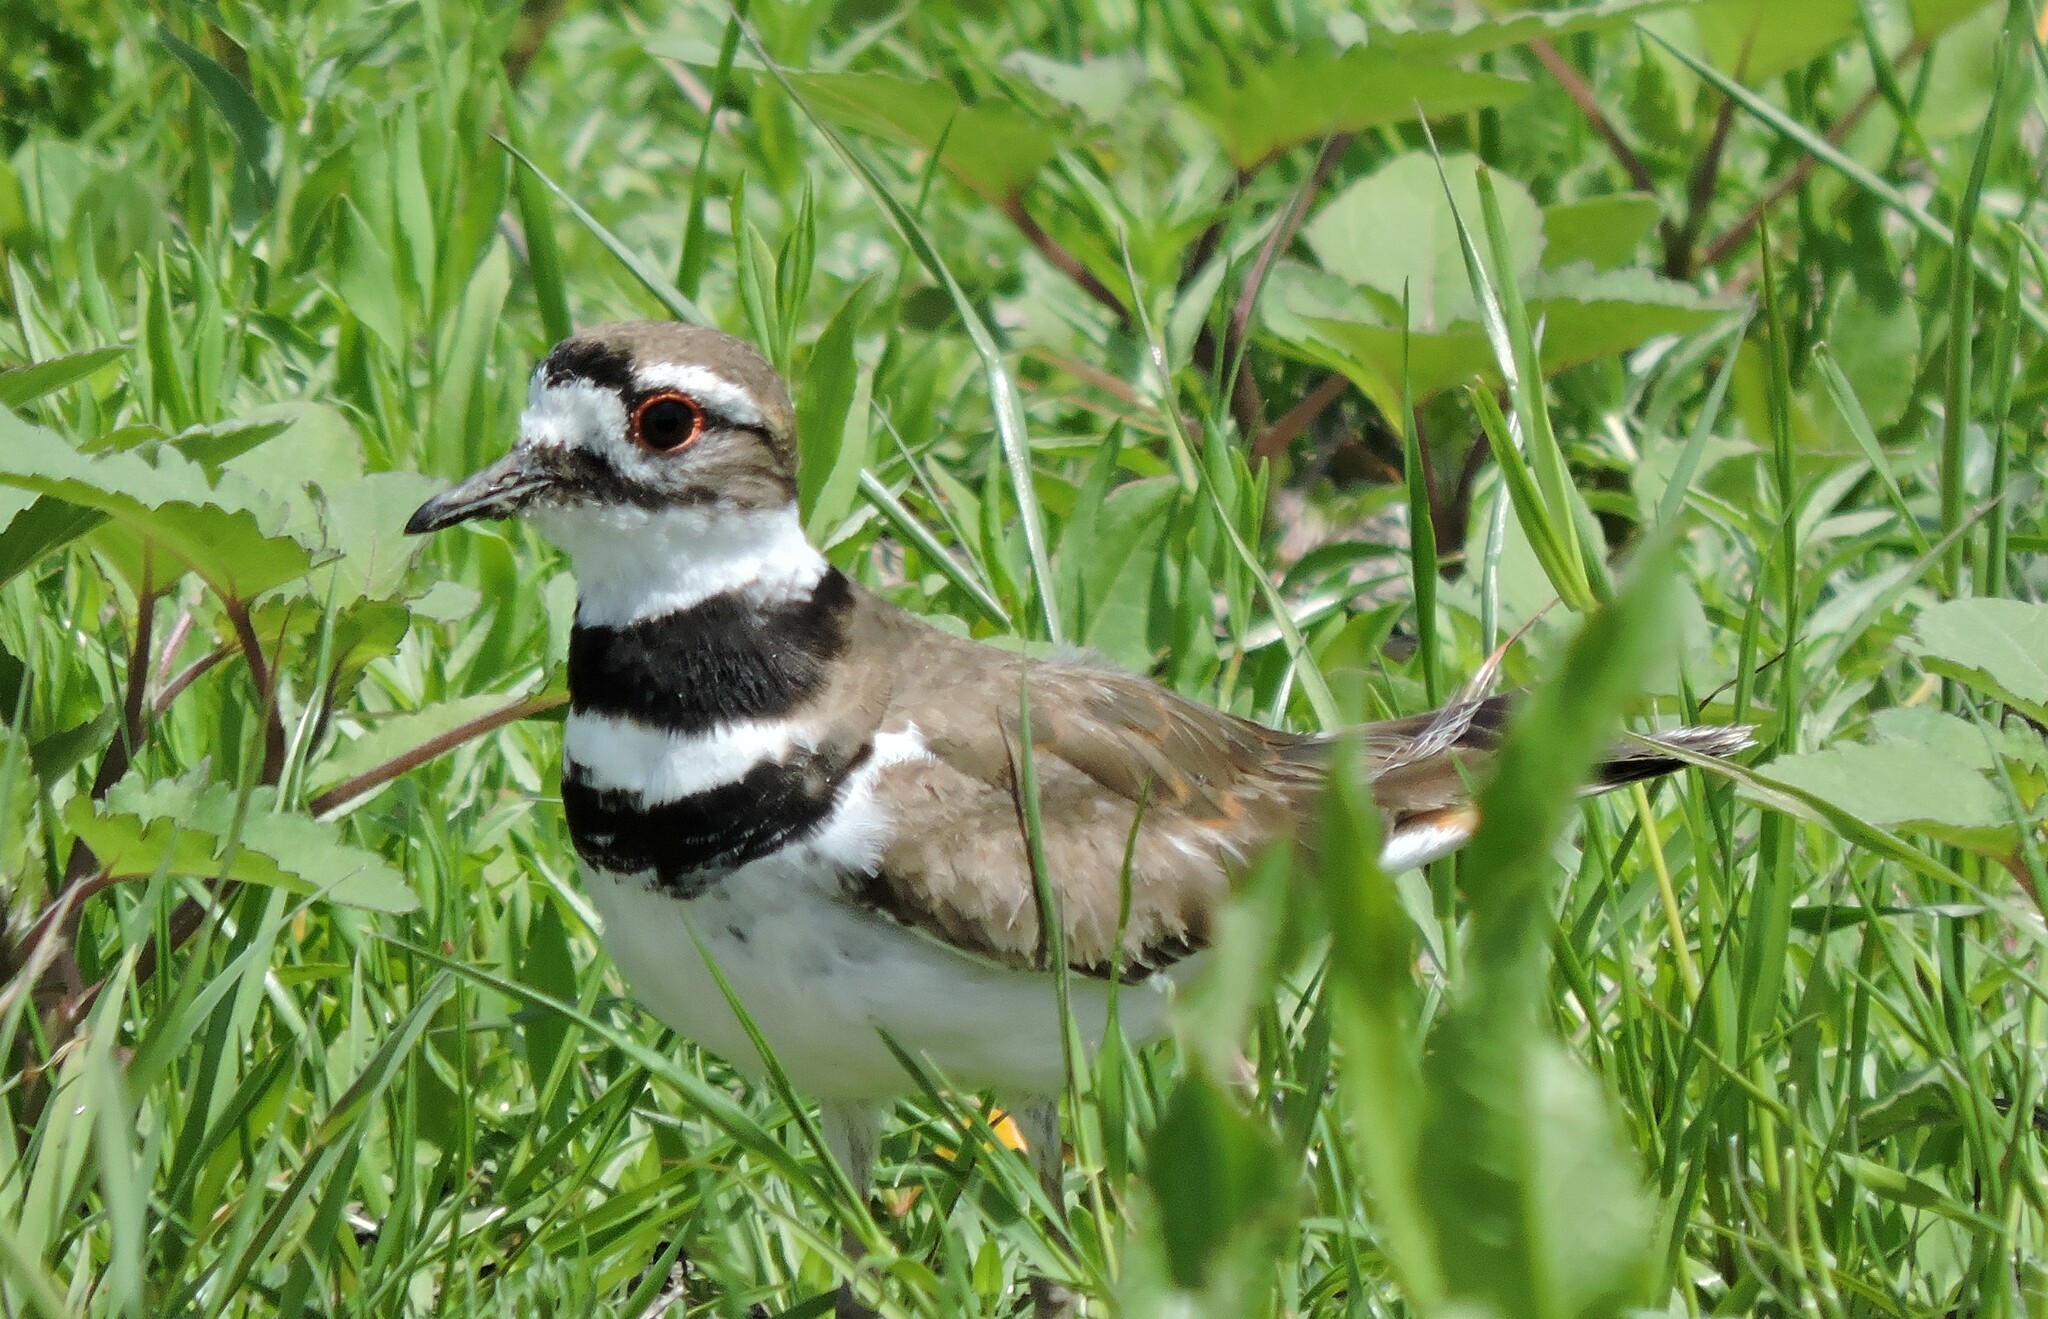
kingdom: Animalia
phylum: Chordata
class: Aves
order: Charadriiformes
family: Charadriidae
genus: Charadrius
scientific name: Charadrius vociferus
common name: Killdeer
